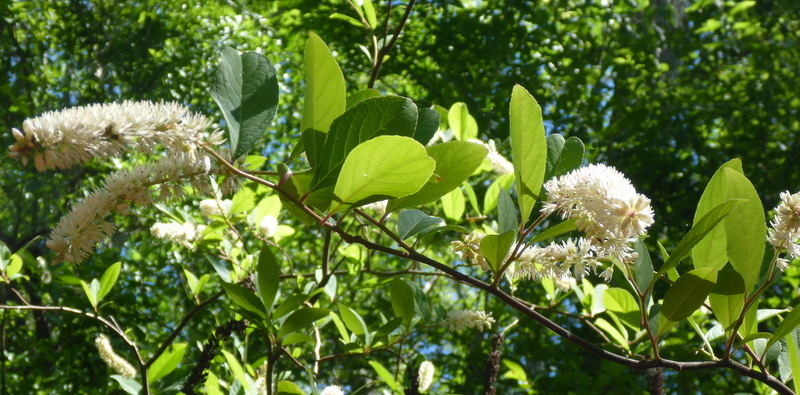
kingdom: Plantae
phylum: Tracheophyta
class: Magnoliopsida
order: Saxifragales
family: Iteaceae
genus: Itea
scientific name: Itea virginica
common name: Sweetspire
